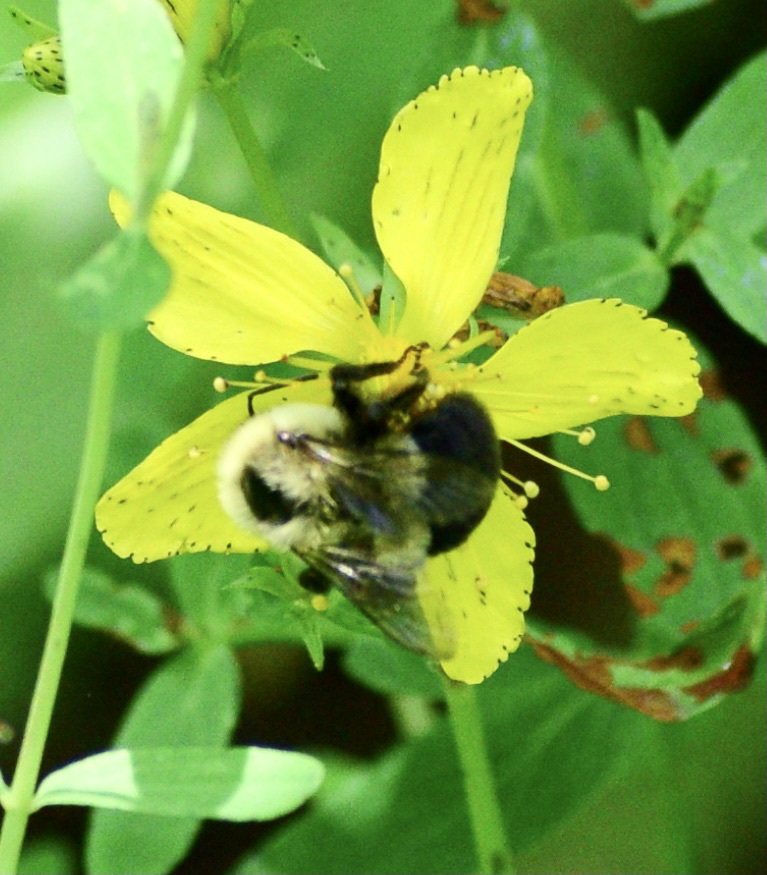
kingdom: Animalia
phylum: Arthropoda
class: Insecta
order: Hymenoptera
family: Apidae
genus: Bombus
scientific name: Bombus impatiens
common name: Common eastern bumble bee
